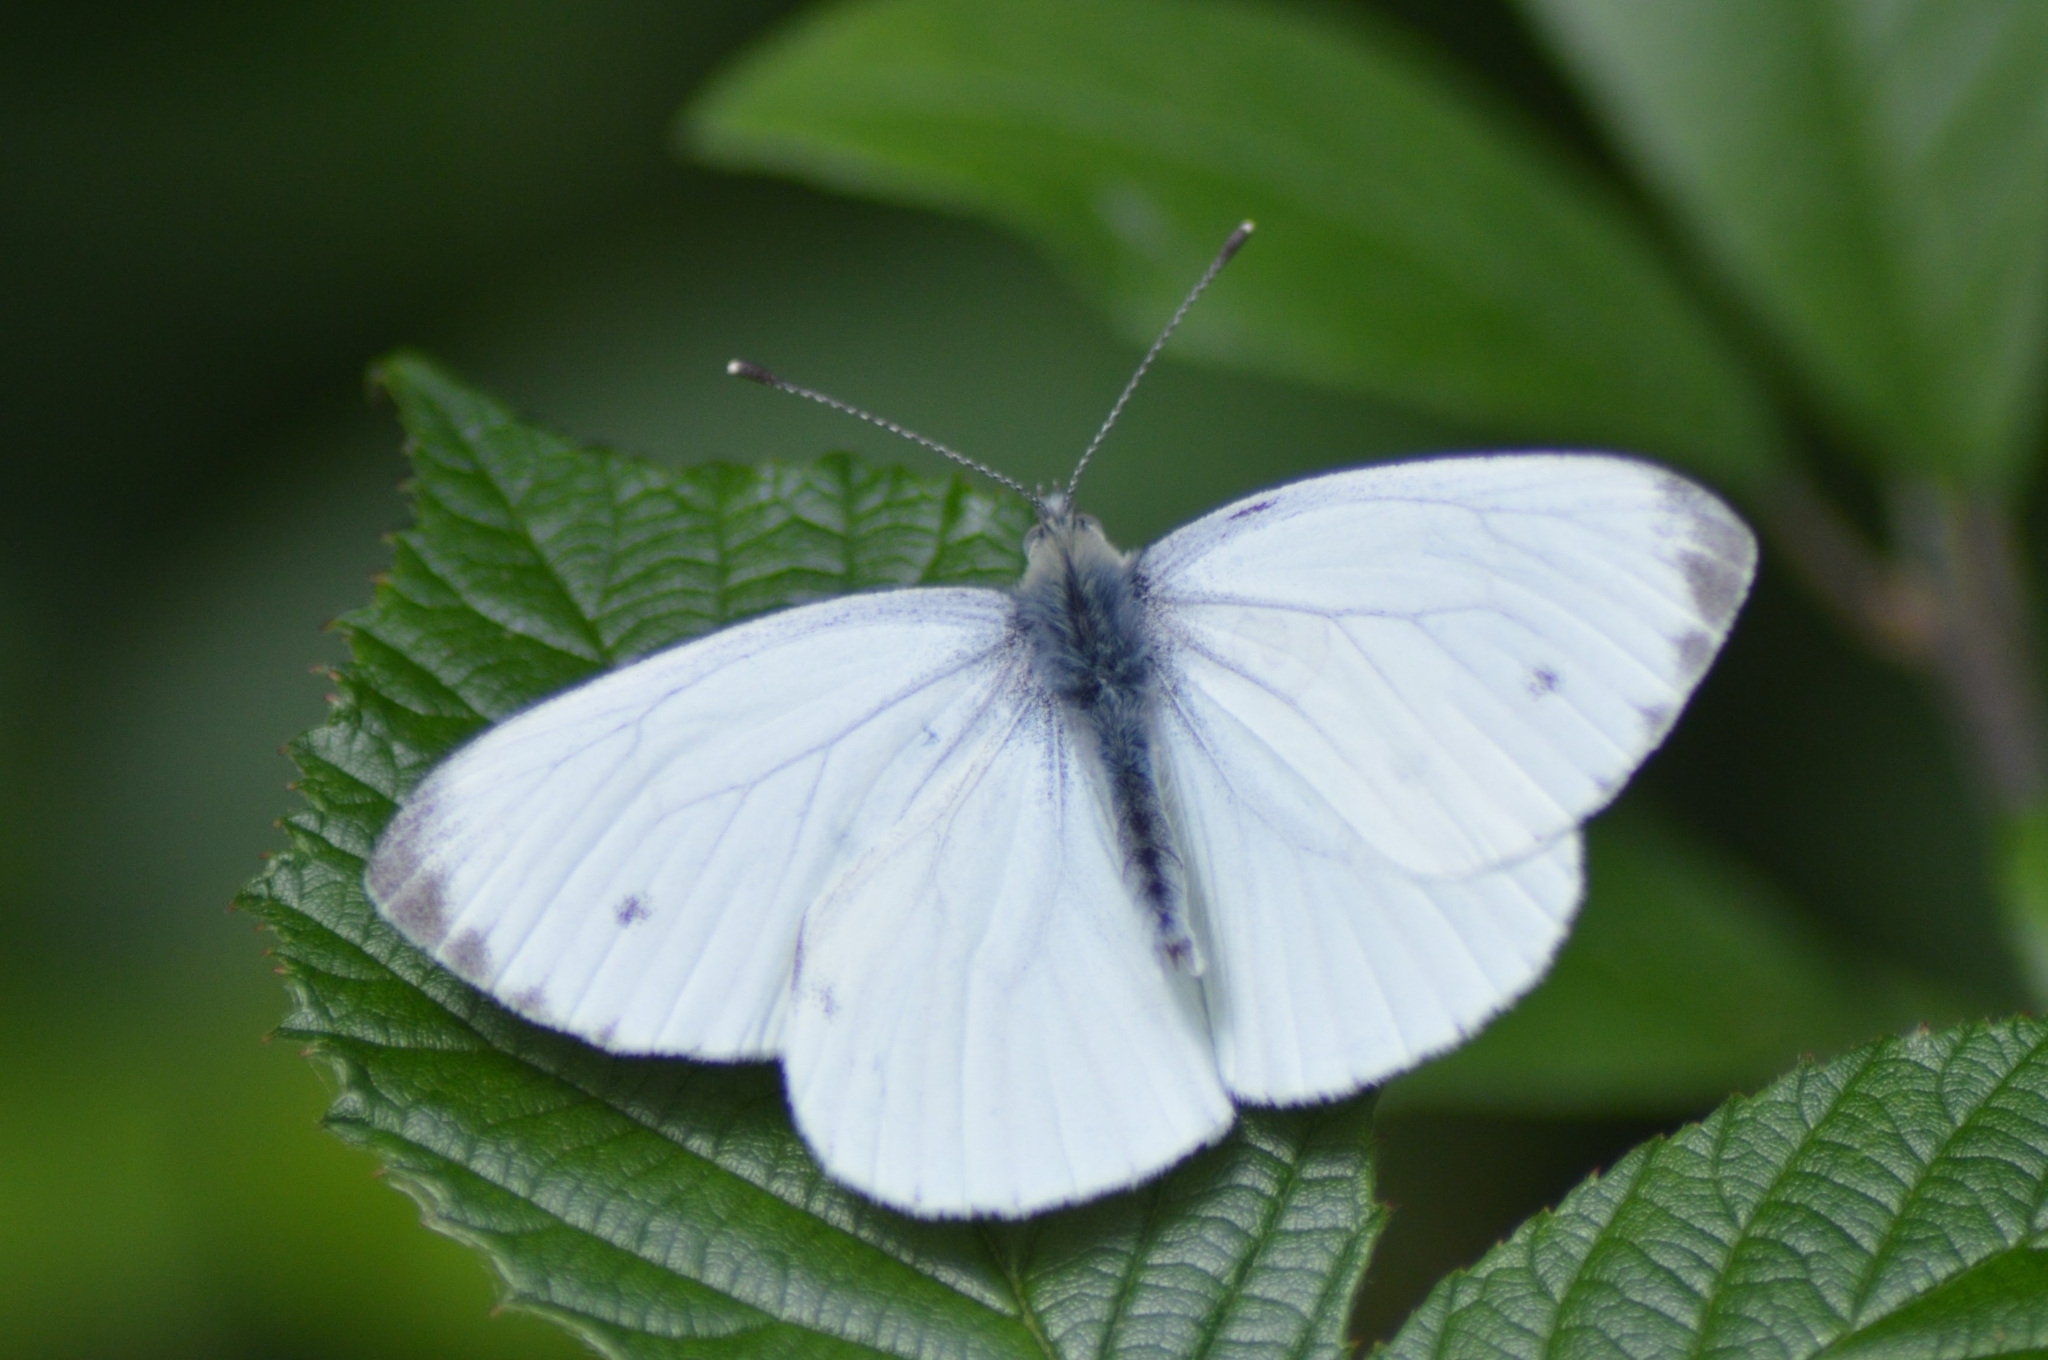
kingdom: Animalia
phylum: Arthropoda
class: Insecta
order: Lepidoptera
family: Pieridae
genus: Pieris
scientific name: Pieris napi
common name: Green-veined white
